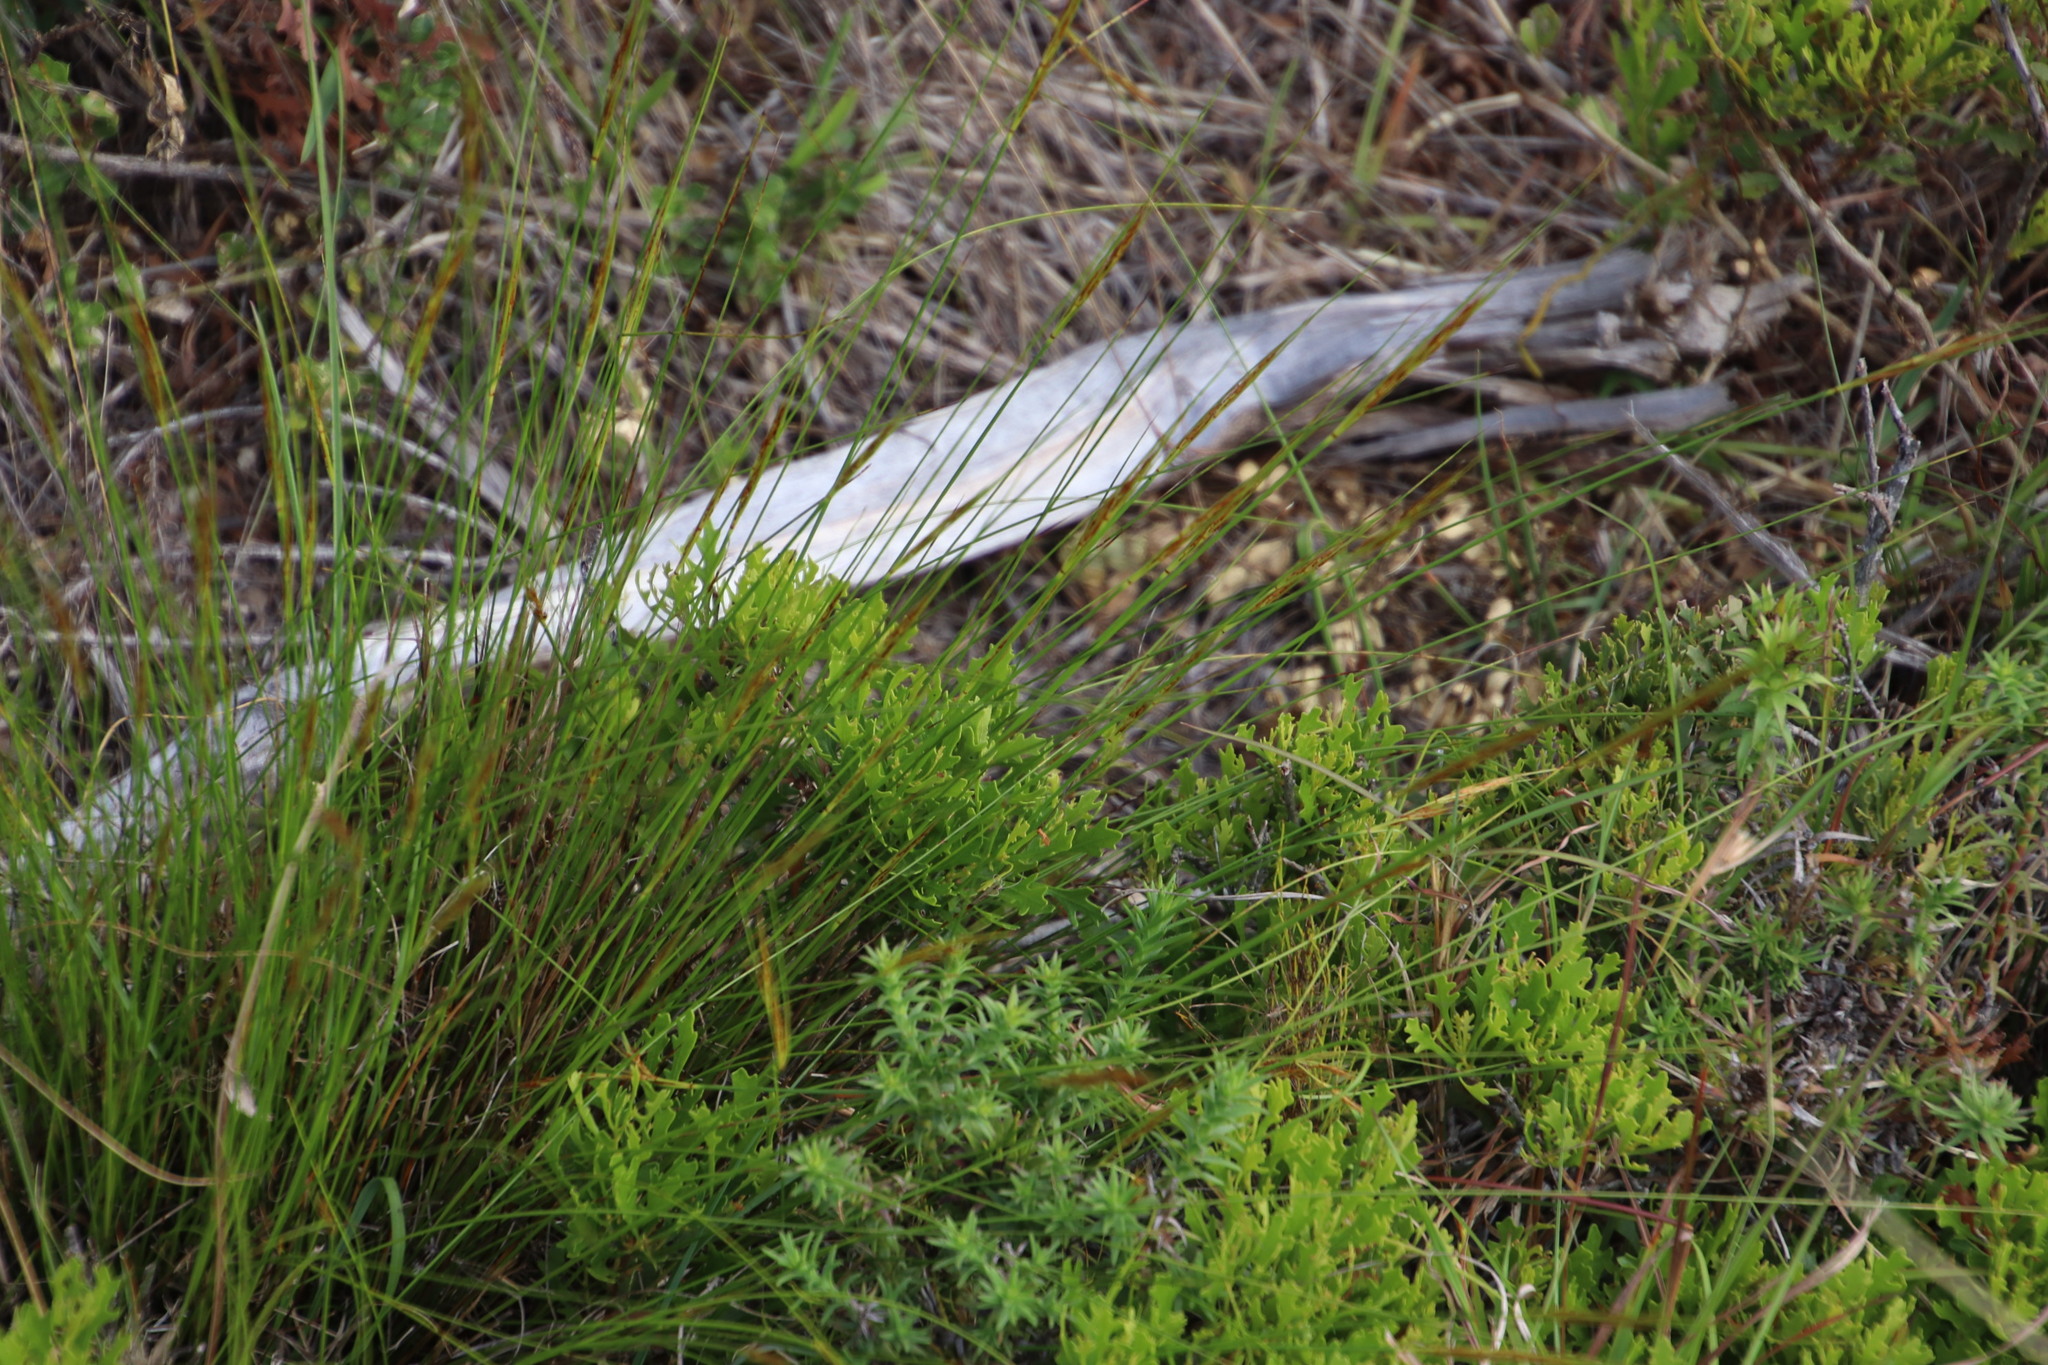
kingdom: Plantae
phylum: Tracheophyta
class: Magnoliopsida
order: Fagales
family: Myricaceae
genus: Morella
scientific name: Morella quercifolia
